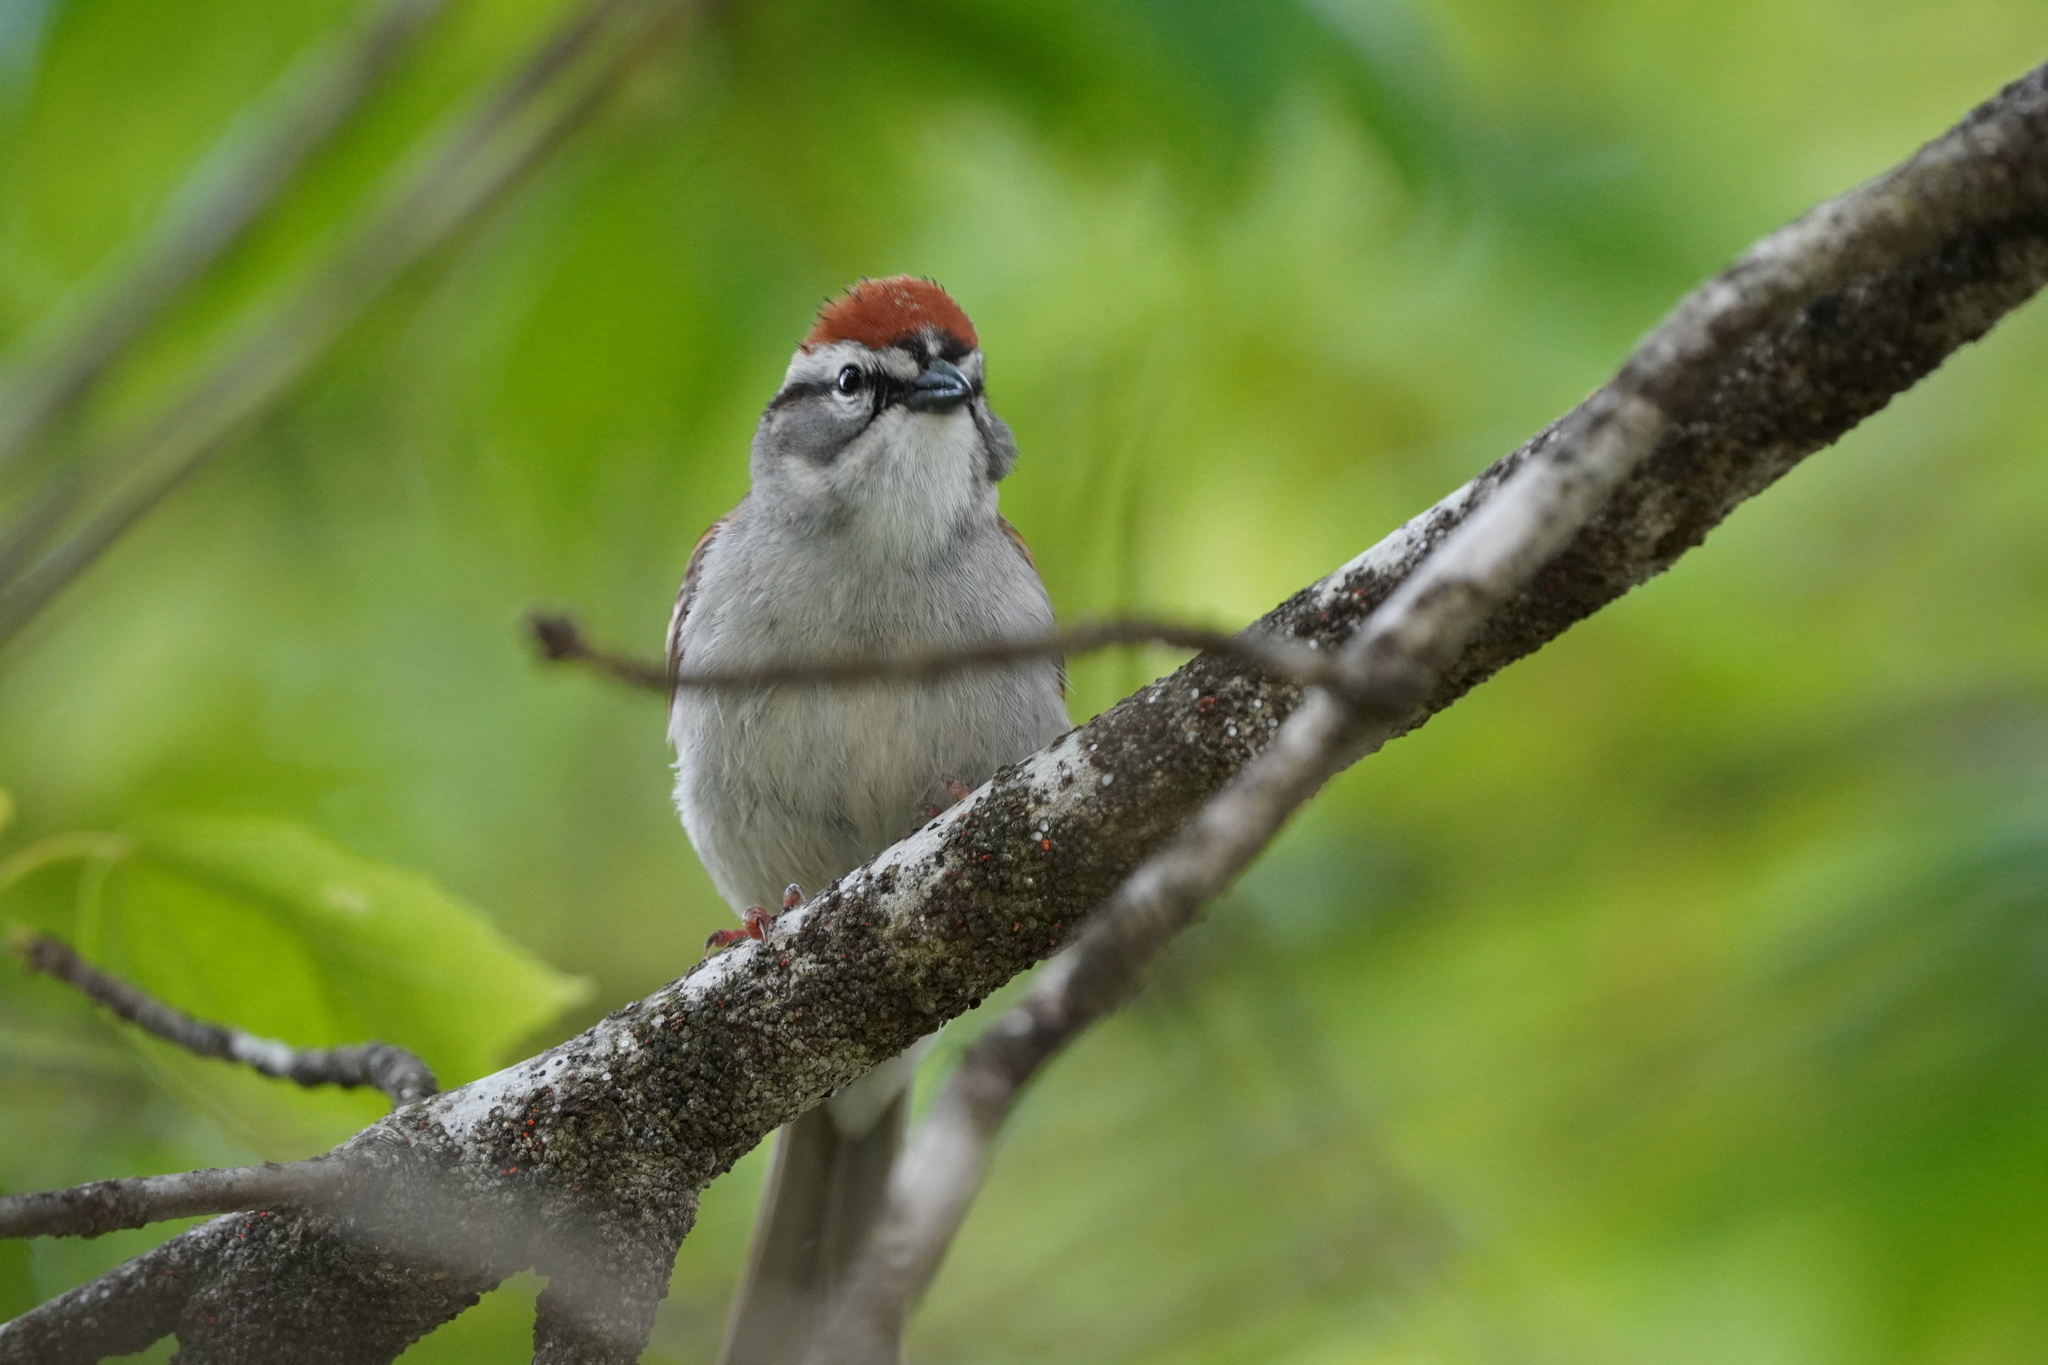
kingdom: Animalia
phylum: Chordata
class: Aves
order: Passeriformes
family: Passerellidae
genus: Spizella
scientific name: Spizella passerina
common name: Chipping sparrow
